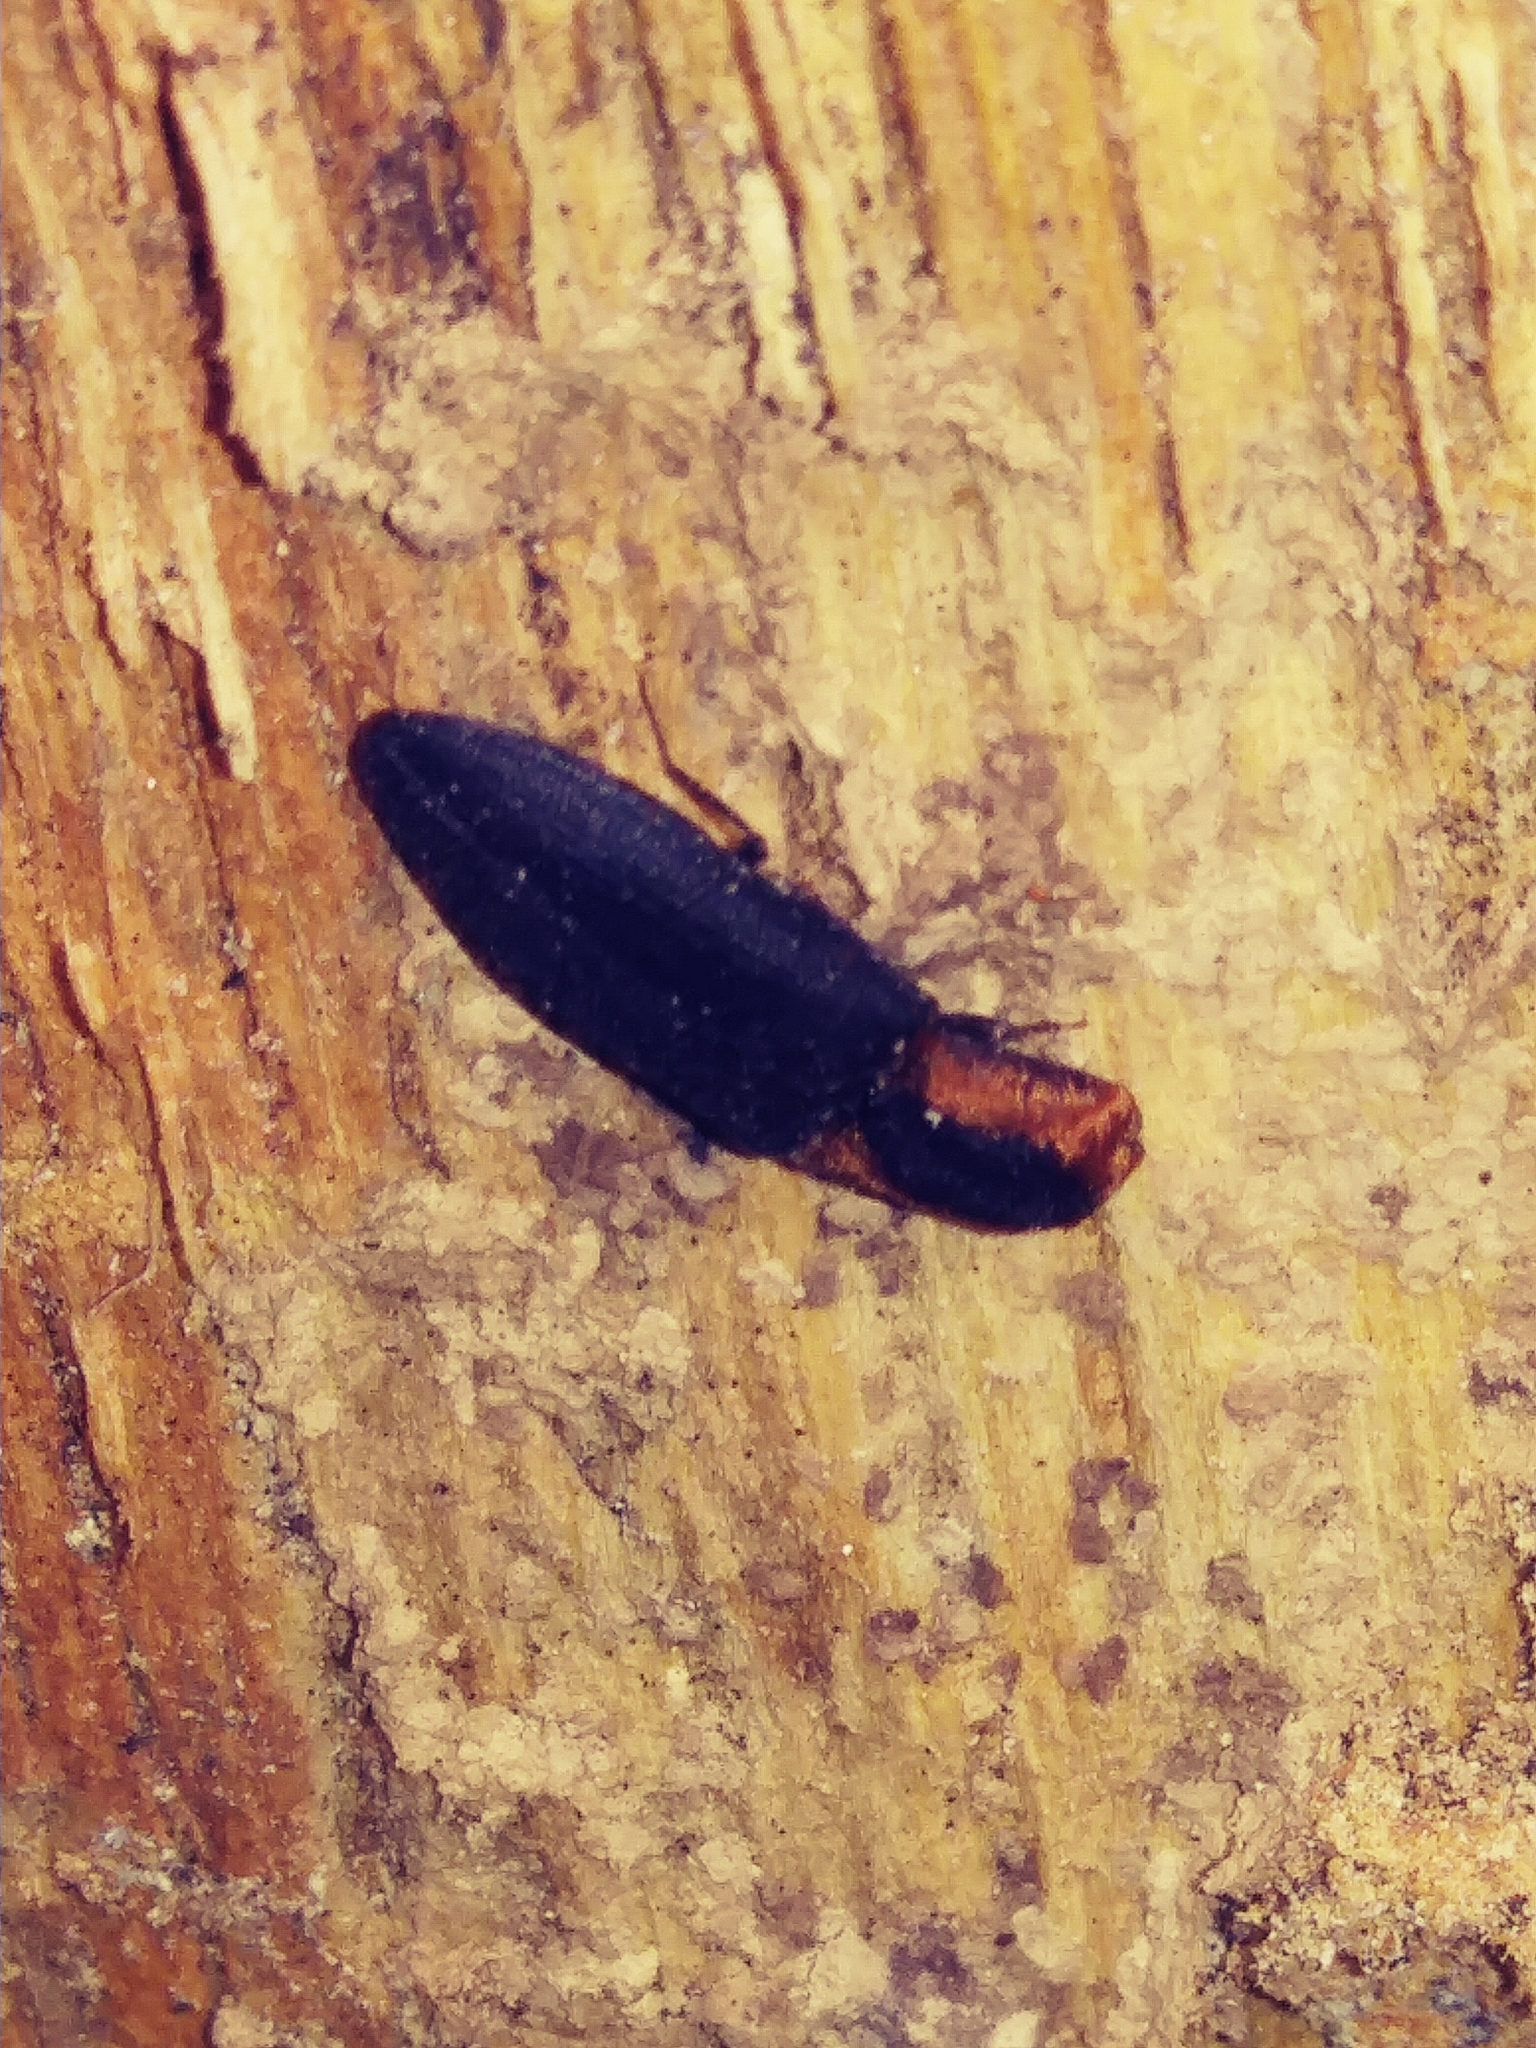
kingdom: Animalia
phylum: Arthropoda
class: Insecta
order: Coleoptera
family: Elateridae
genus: Lacon
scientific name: Lacon discoideus
